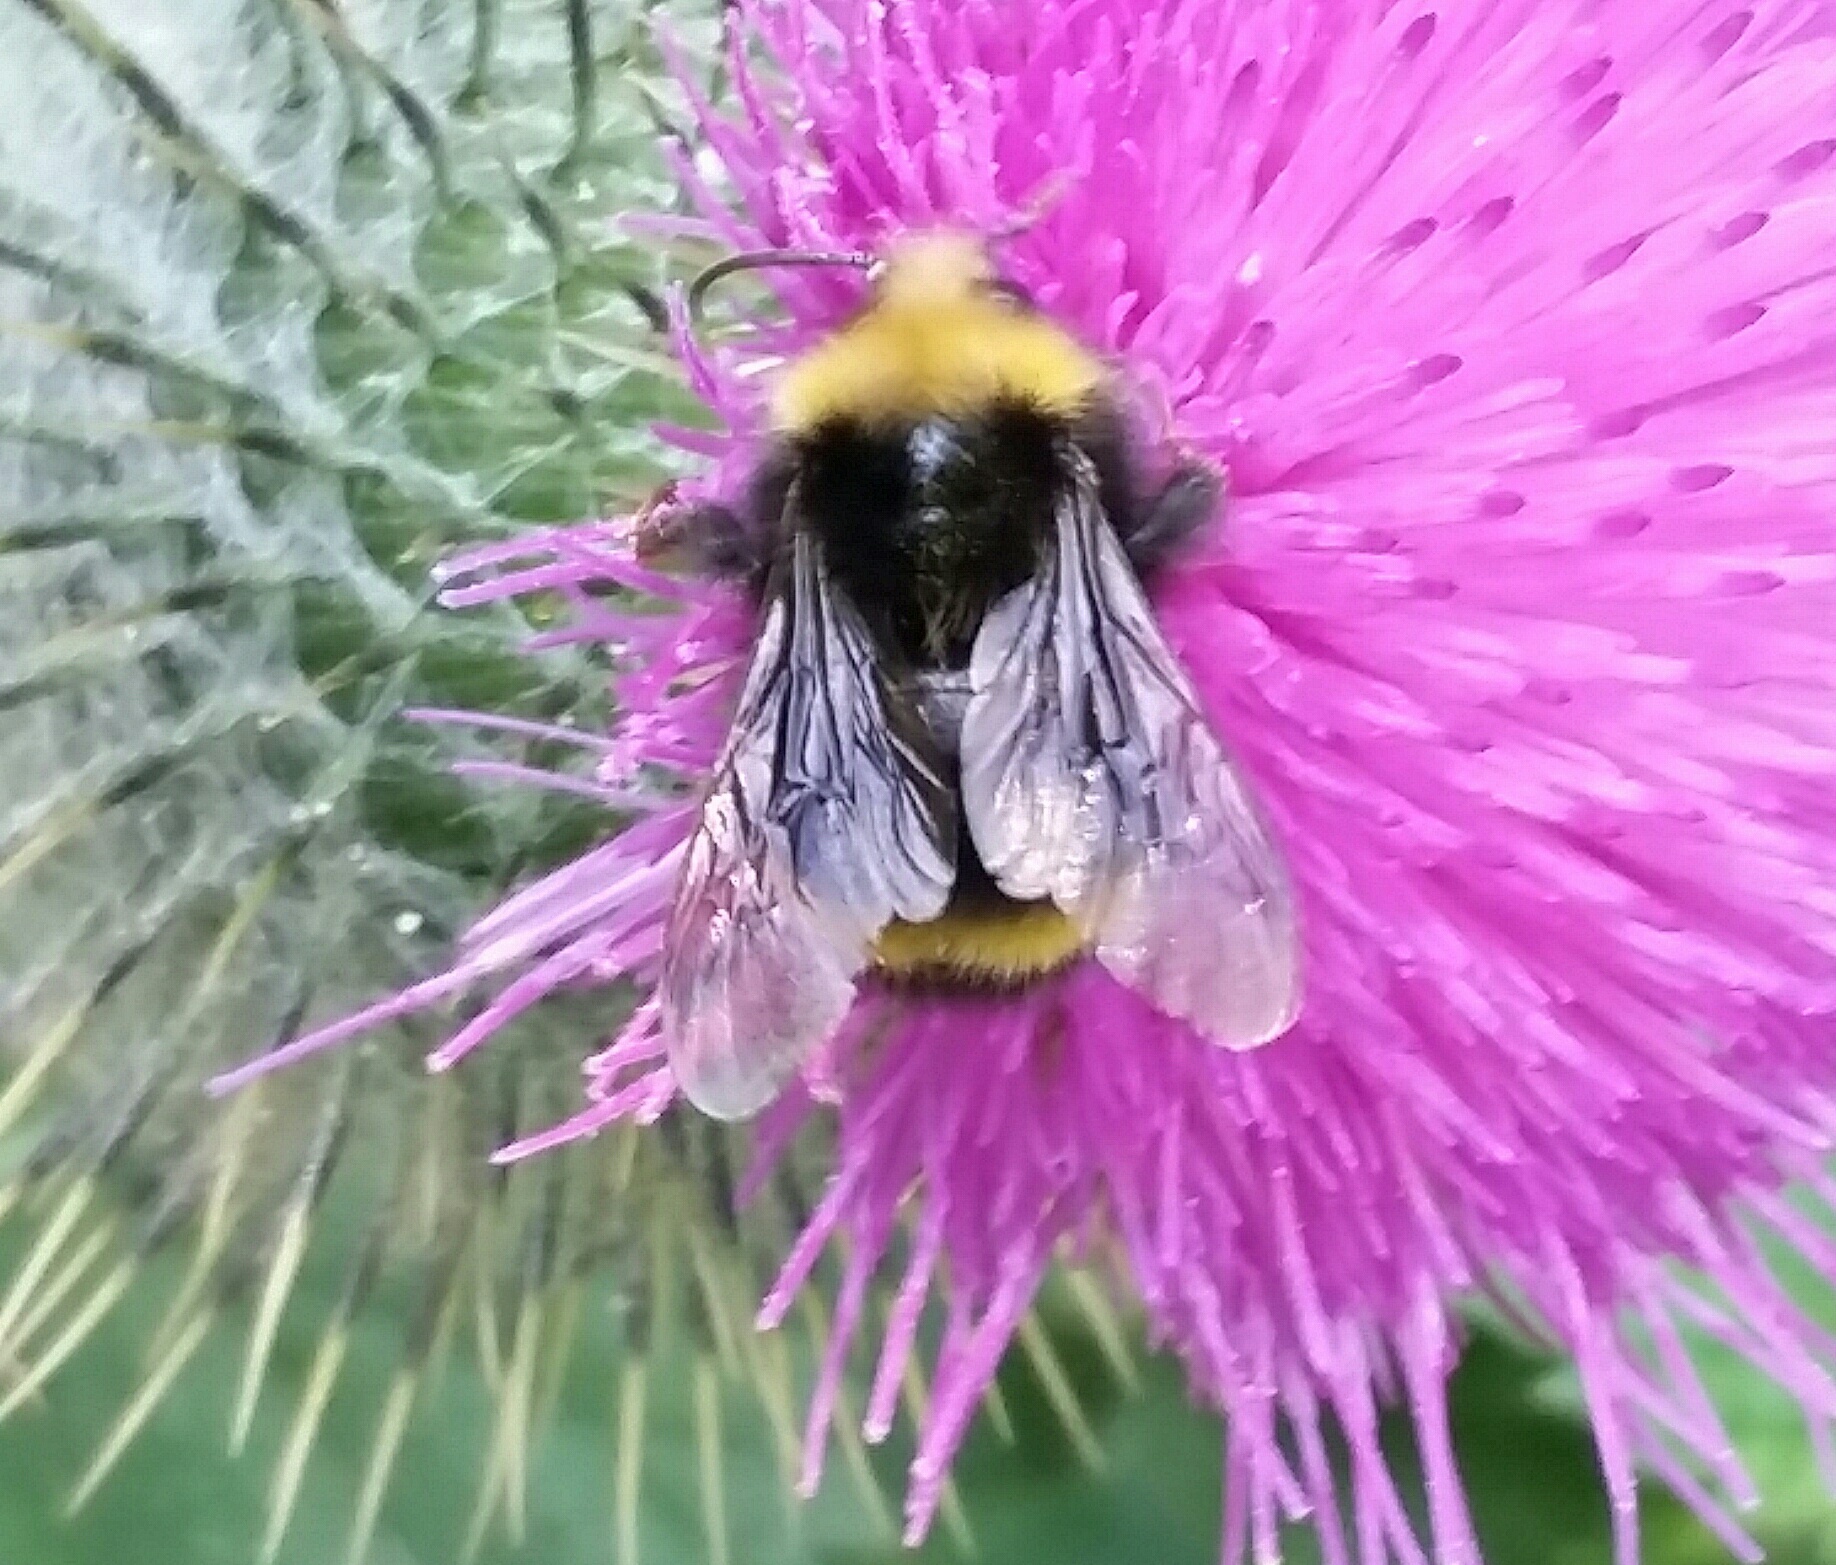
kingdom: Animalia
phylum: Arthropoda
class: Insecta
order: Hymenoptera
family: Apidae
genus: Bombus
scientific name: Bombus vosnesenskii
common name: Vosnesensky bumble bee
